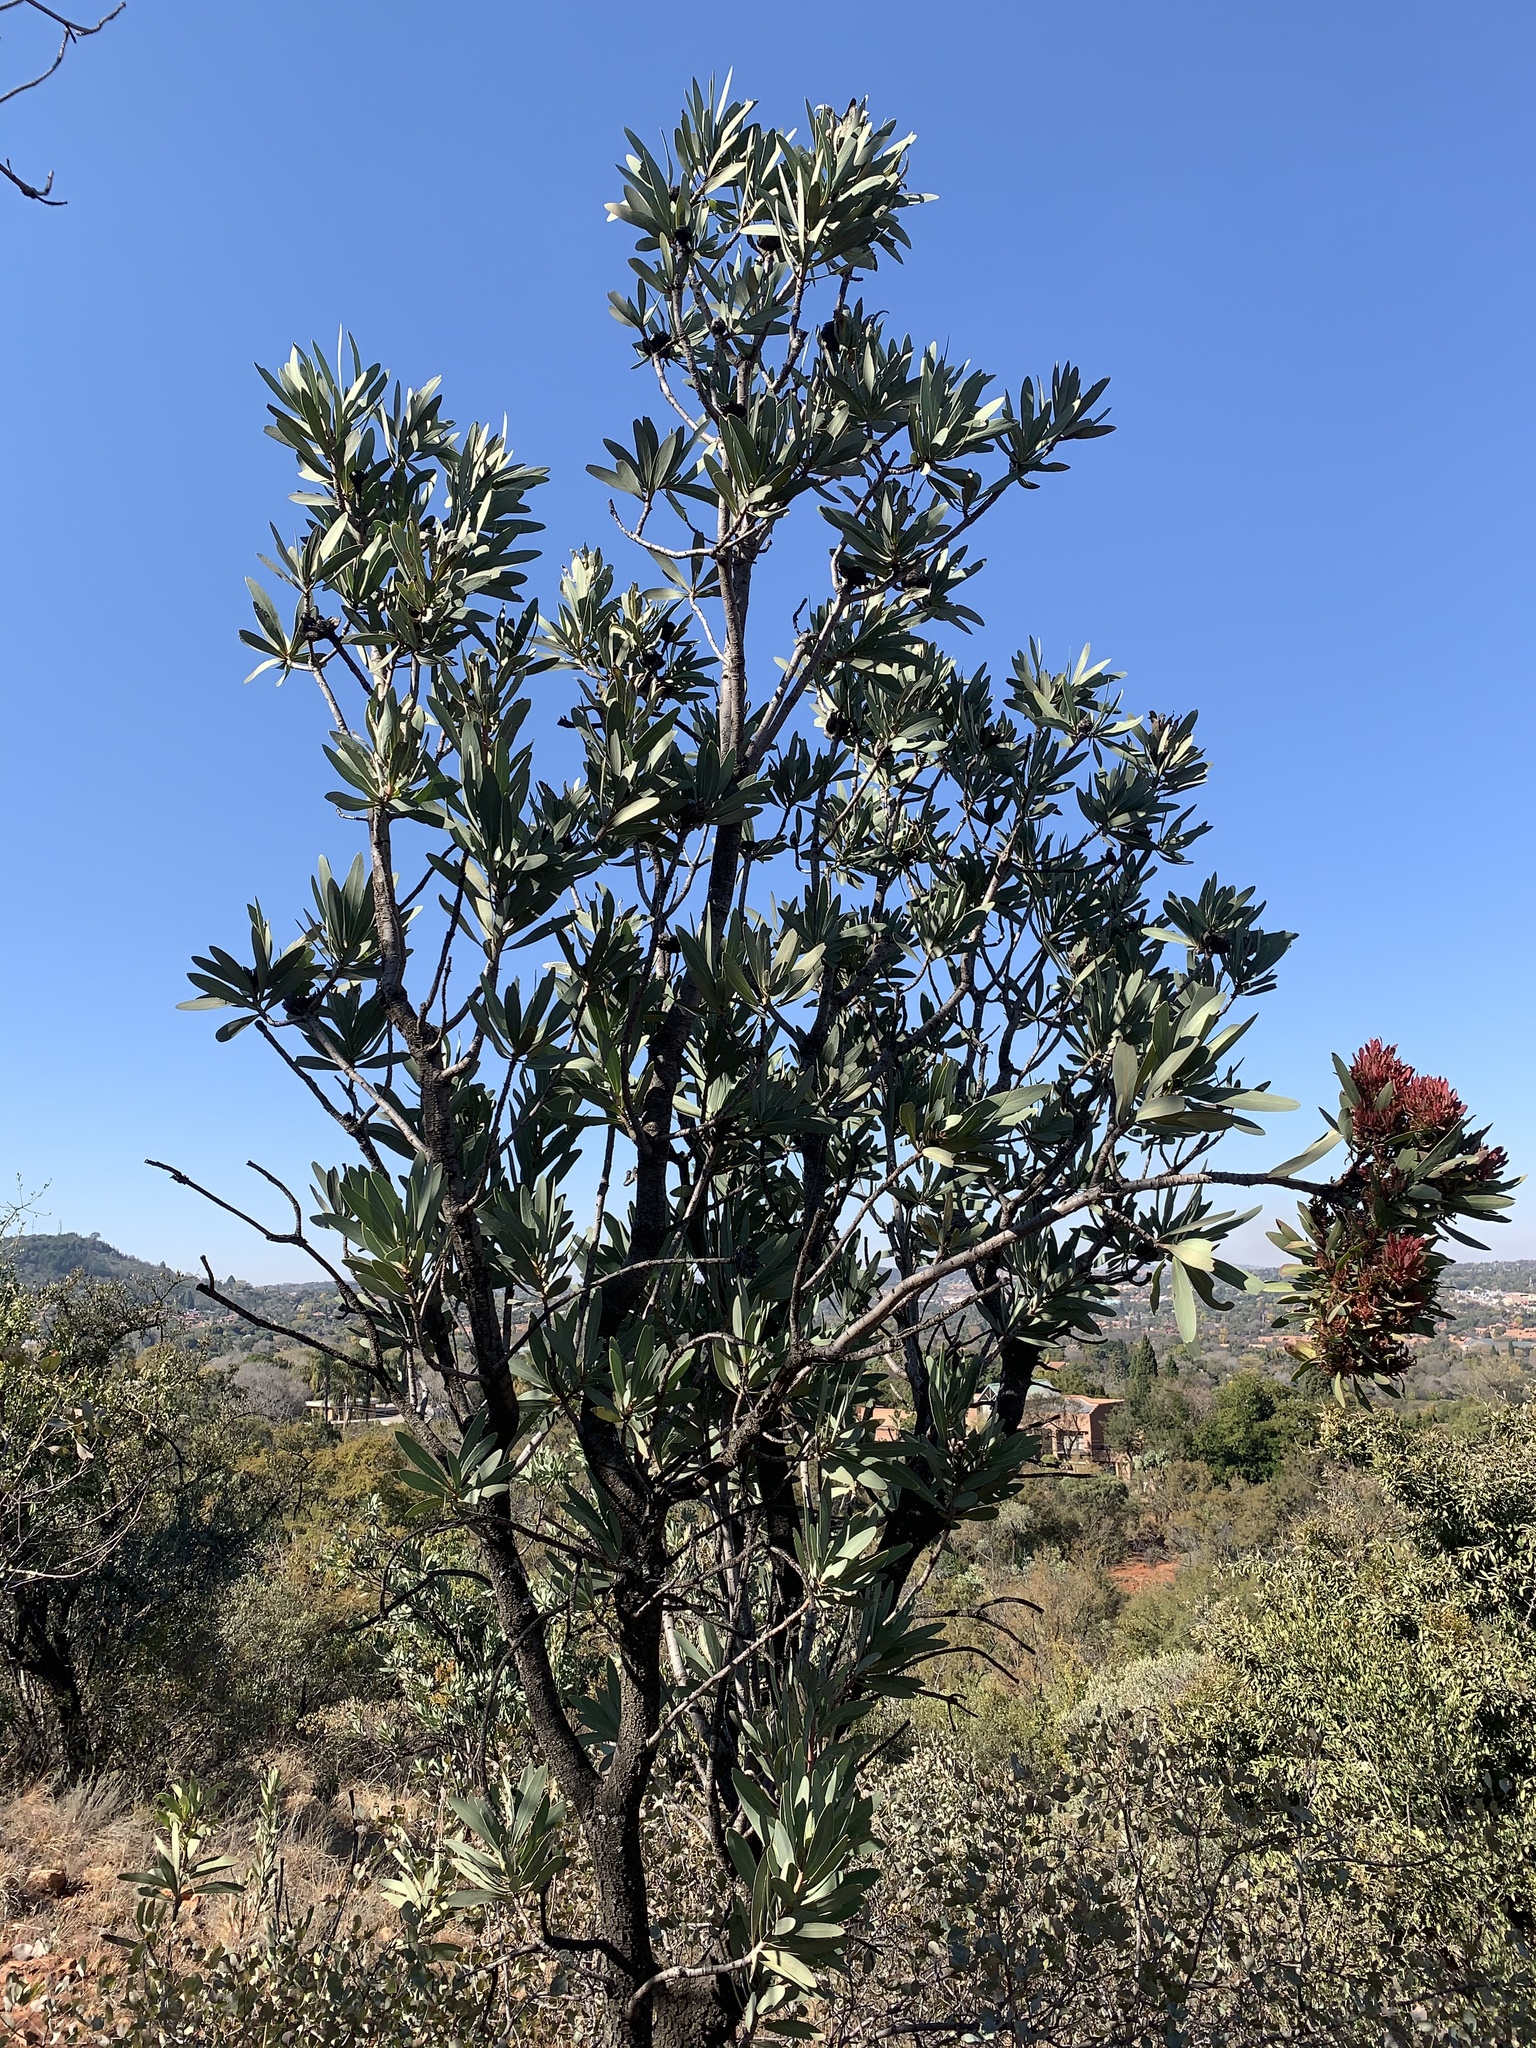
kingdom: Plantae
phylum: Tracheophyta
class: Magnoliopsida
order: Proteales
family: Proteaceae
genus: Protea
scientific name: Protea caffra
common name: Common sugarbush
